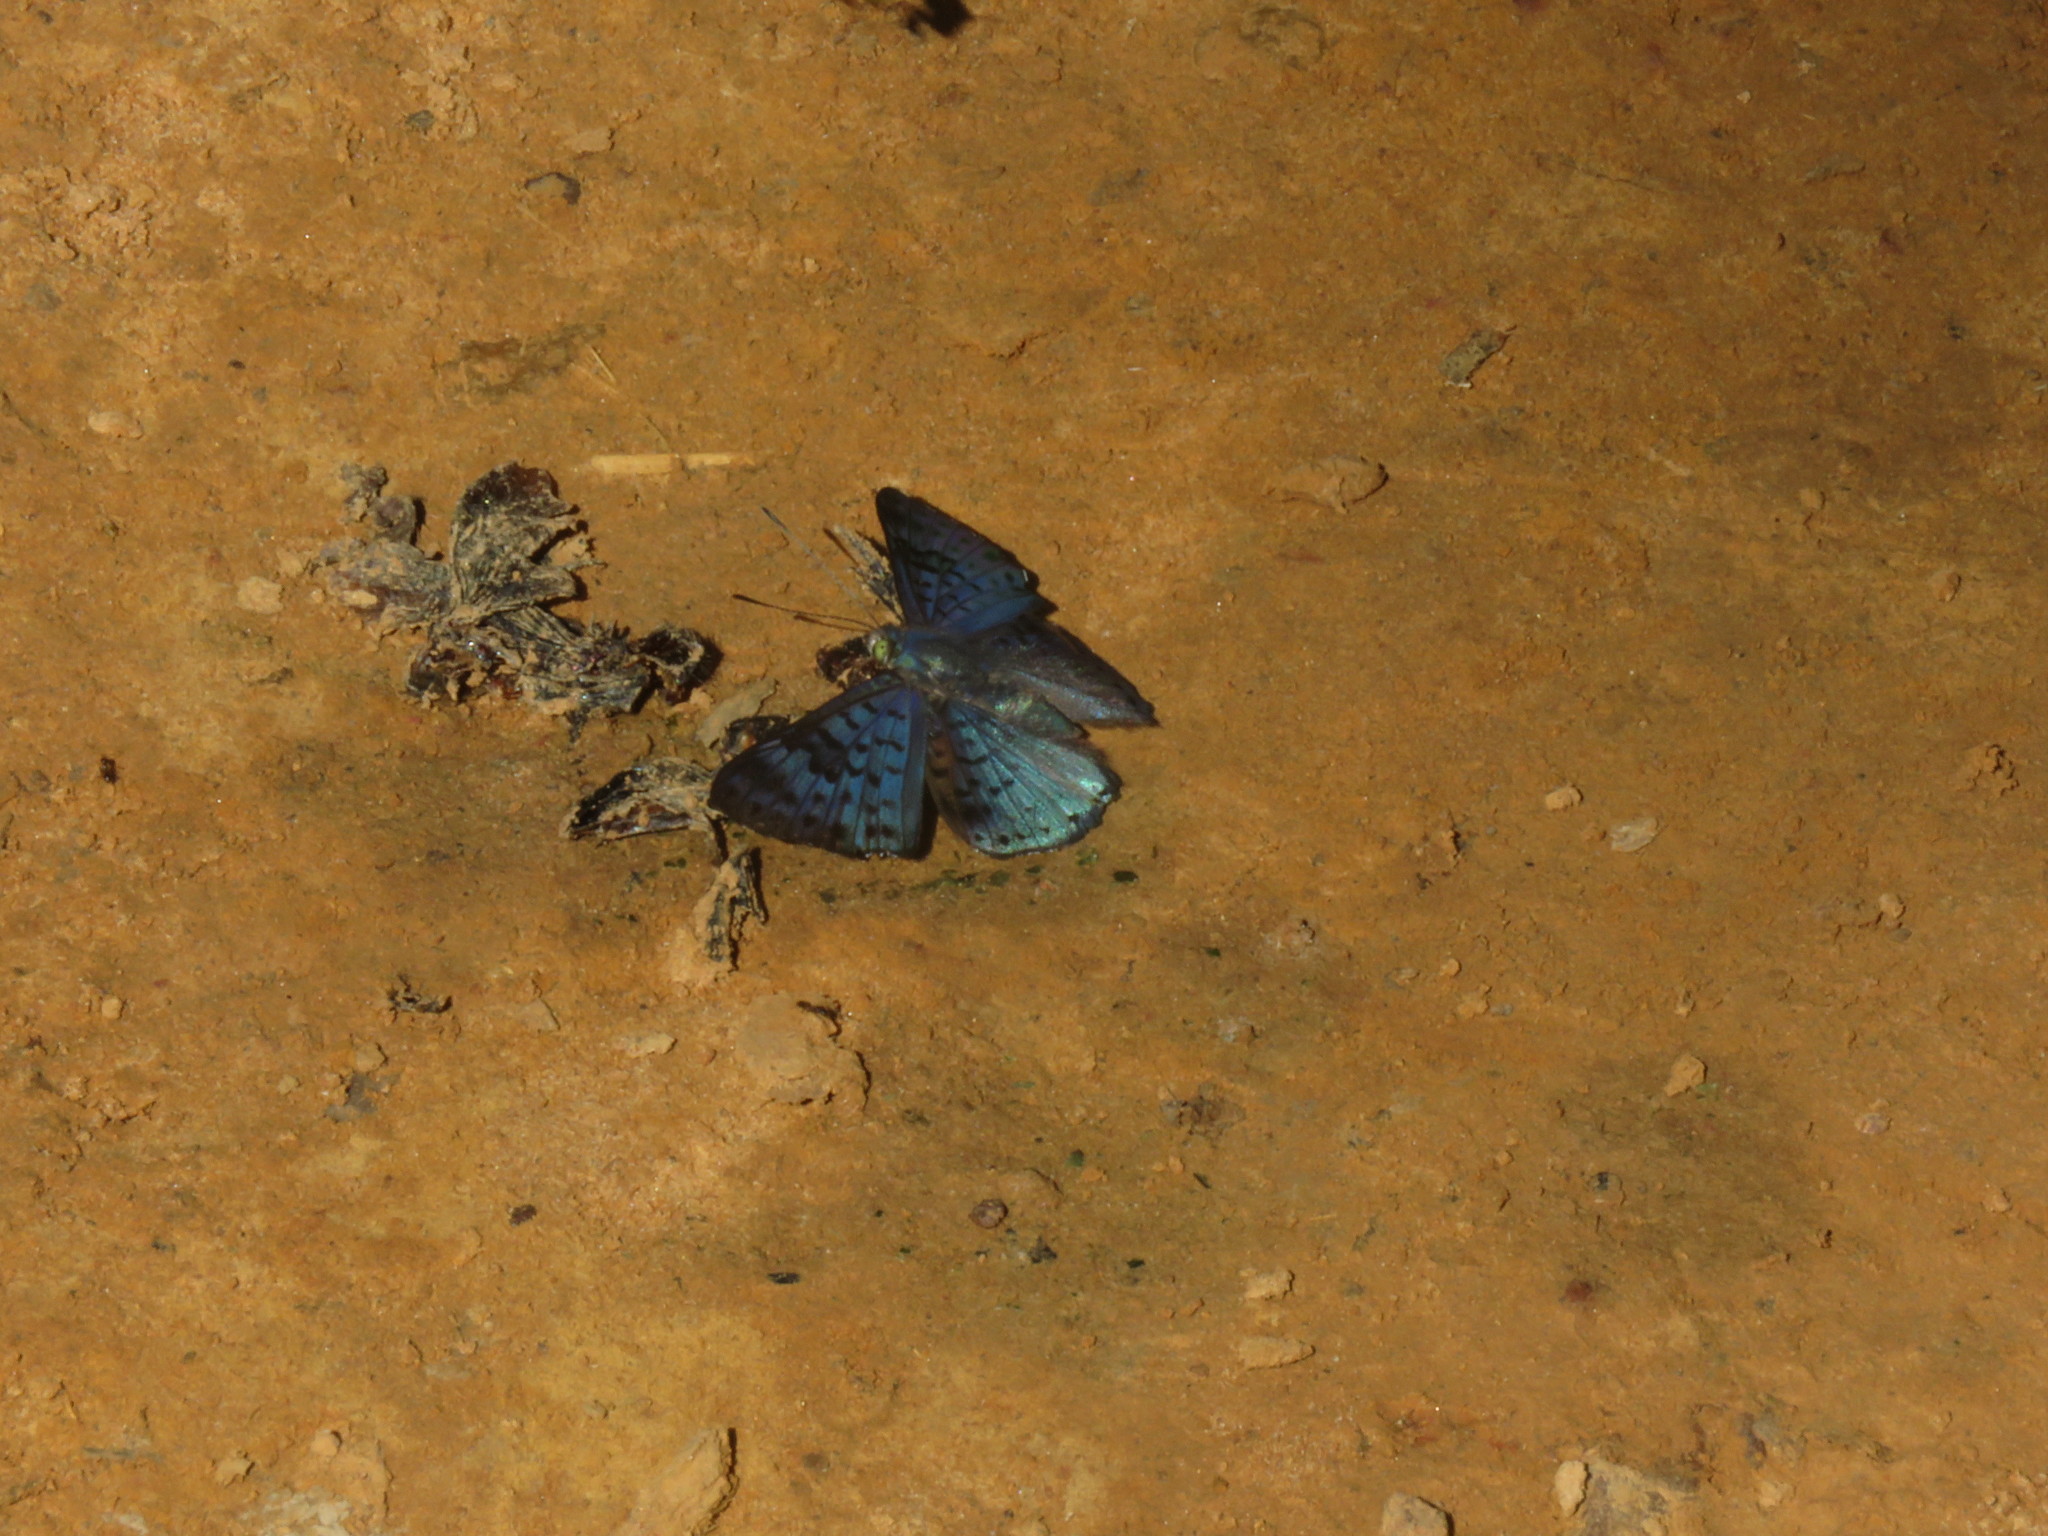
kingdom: Animalia
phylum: Arthropoda
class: Insecta
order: Lepidoptera
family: Riodinidae
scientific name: Riodinidae
